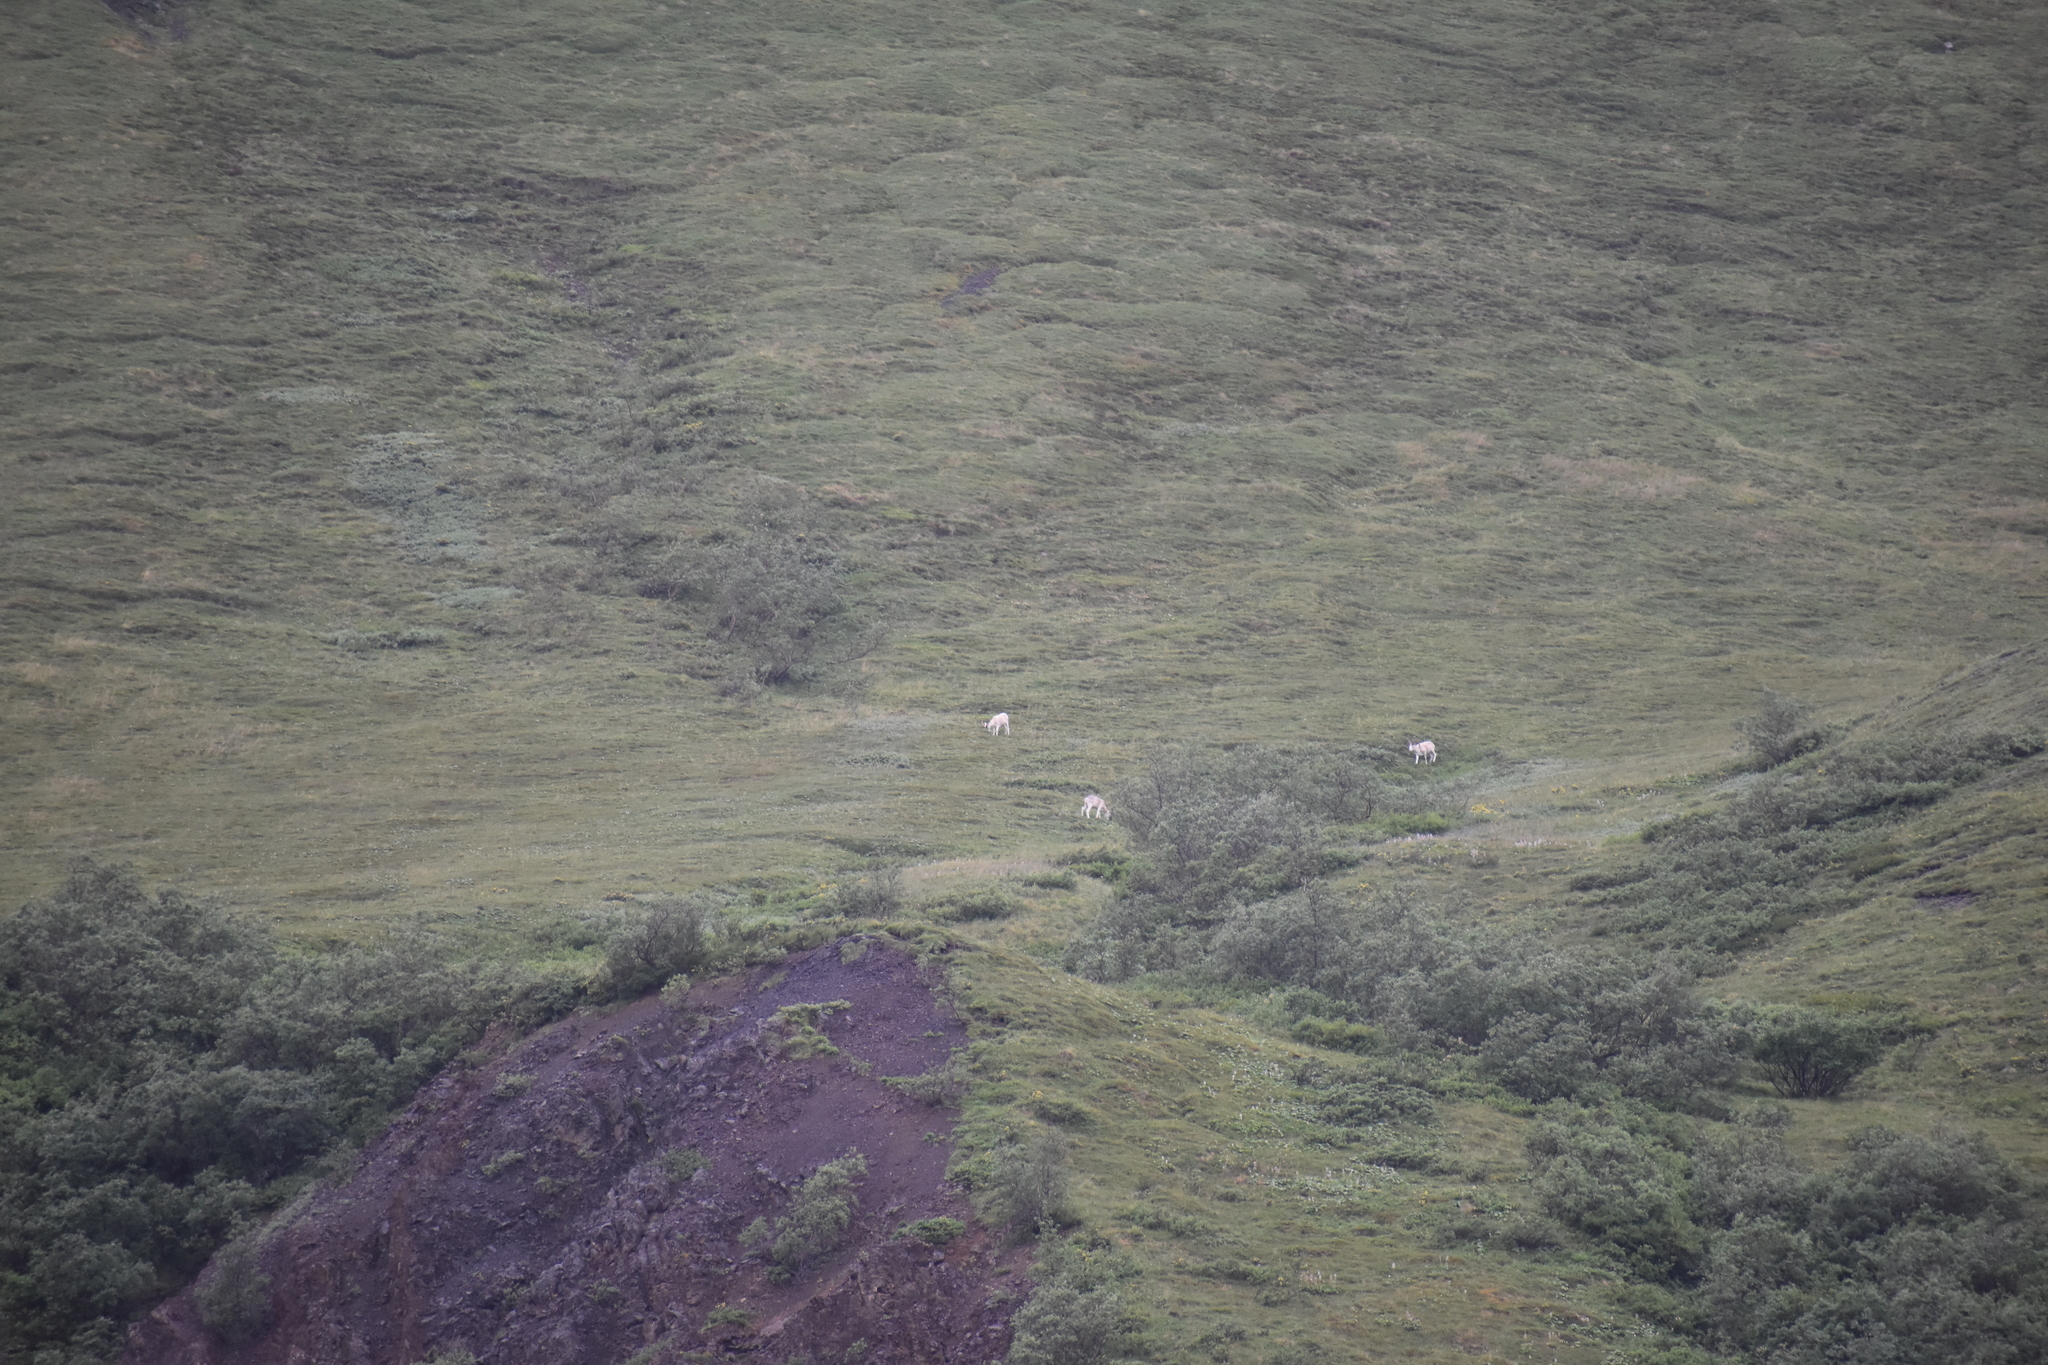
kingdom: Animalia
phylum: Chordata
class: Mammalia
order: Artiodactyla
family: Bovidae
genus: Ovis
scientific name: Ovis dalli
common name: Dall's sheep
